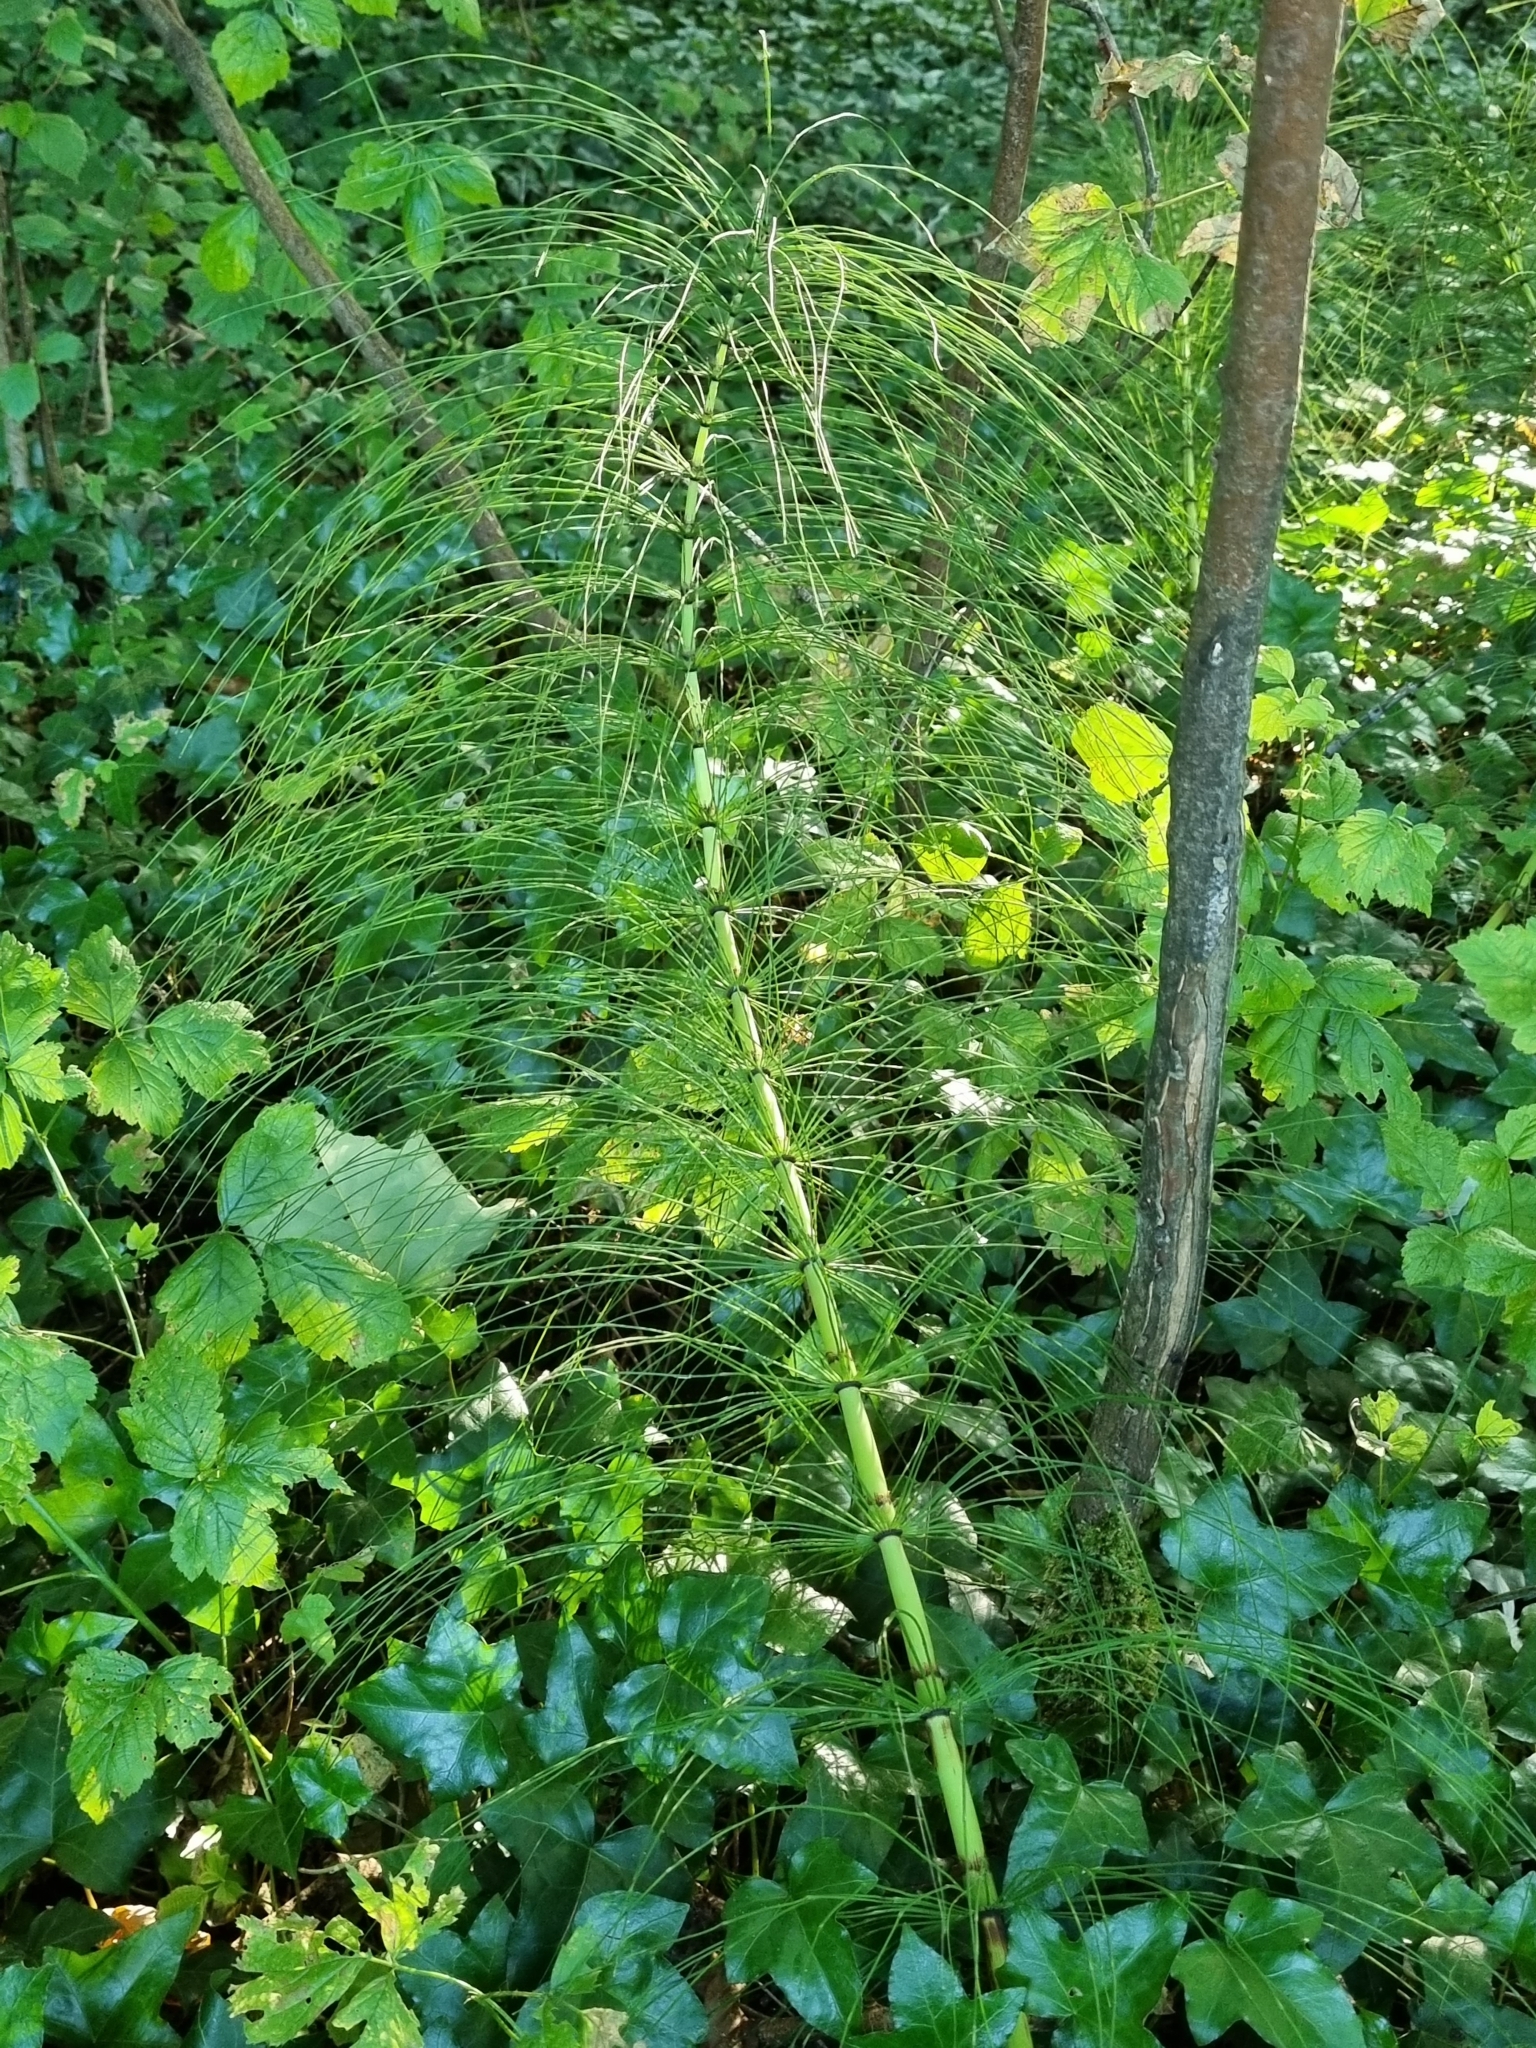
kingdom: Plantae
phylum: Tracheophyta
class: Polypodiopsida
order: Equisetales
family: Equisetaceae
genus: Equisetum
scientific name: Equisetum telmateia
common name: Great horsetail
